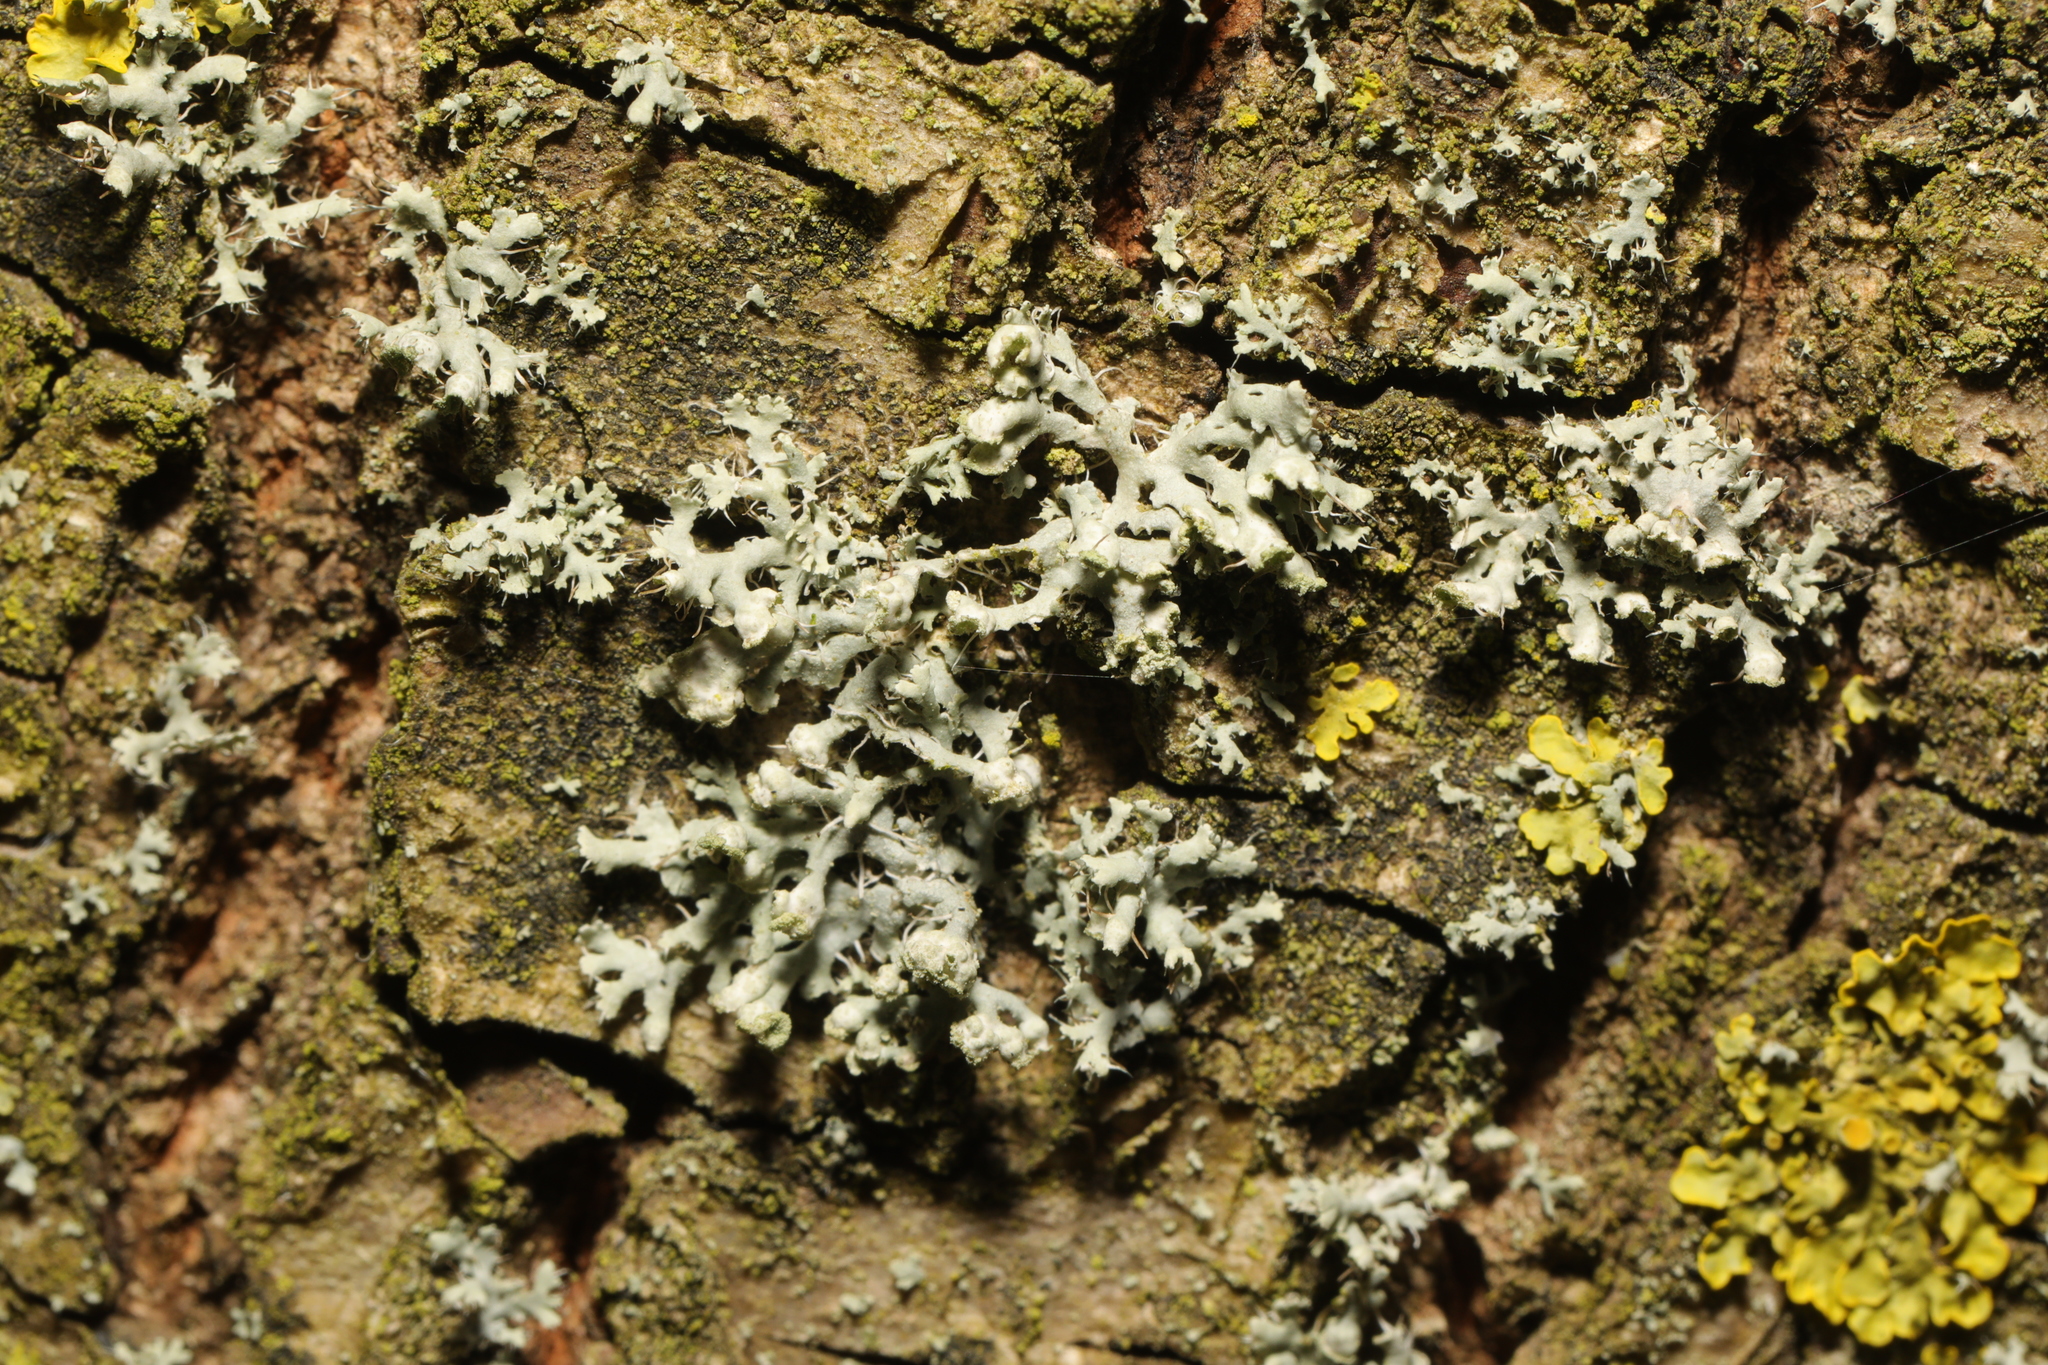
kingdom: Fungi
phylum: Ascomycota
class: Lecanoromycetes
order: Caliciales
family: Physciaceae
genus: Physcia
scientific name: Physcia adscendens
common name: Hooded rosette lichen
